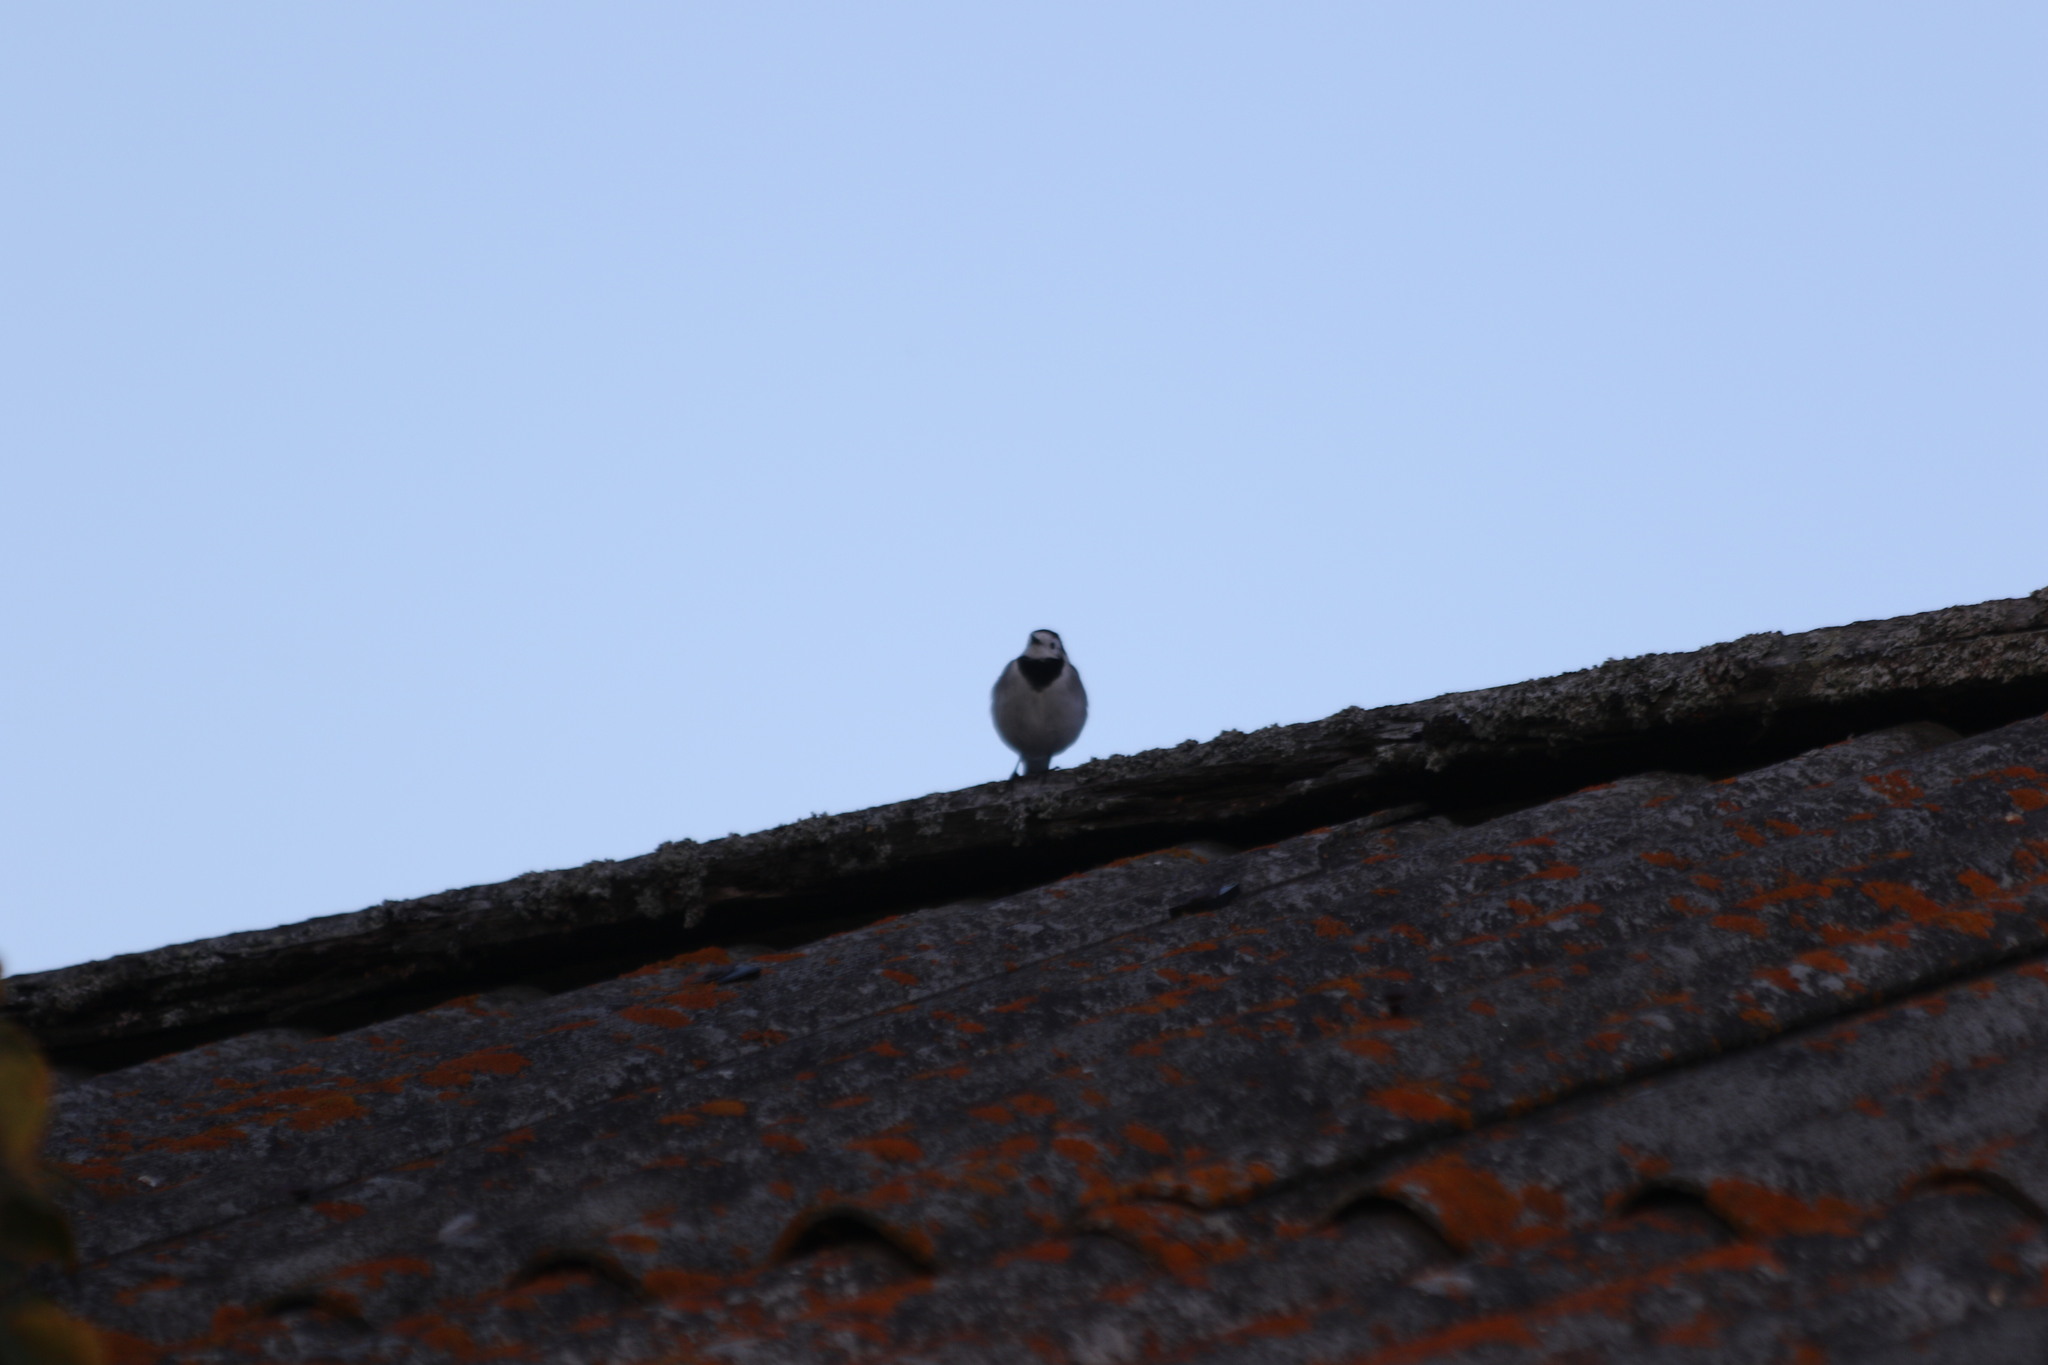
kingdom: Animalia
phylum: Chordata
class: Aves
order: Passeriformes
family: Motacillidae
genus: Motacilla
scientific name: Motacilla alba
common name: White wagtail
